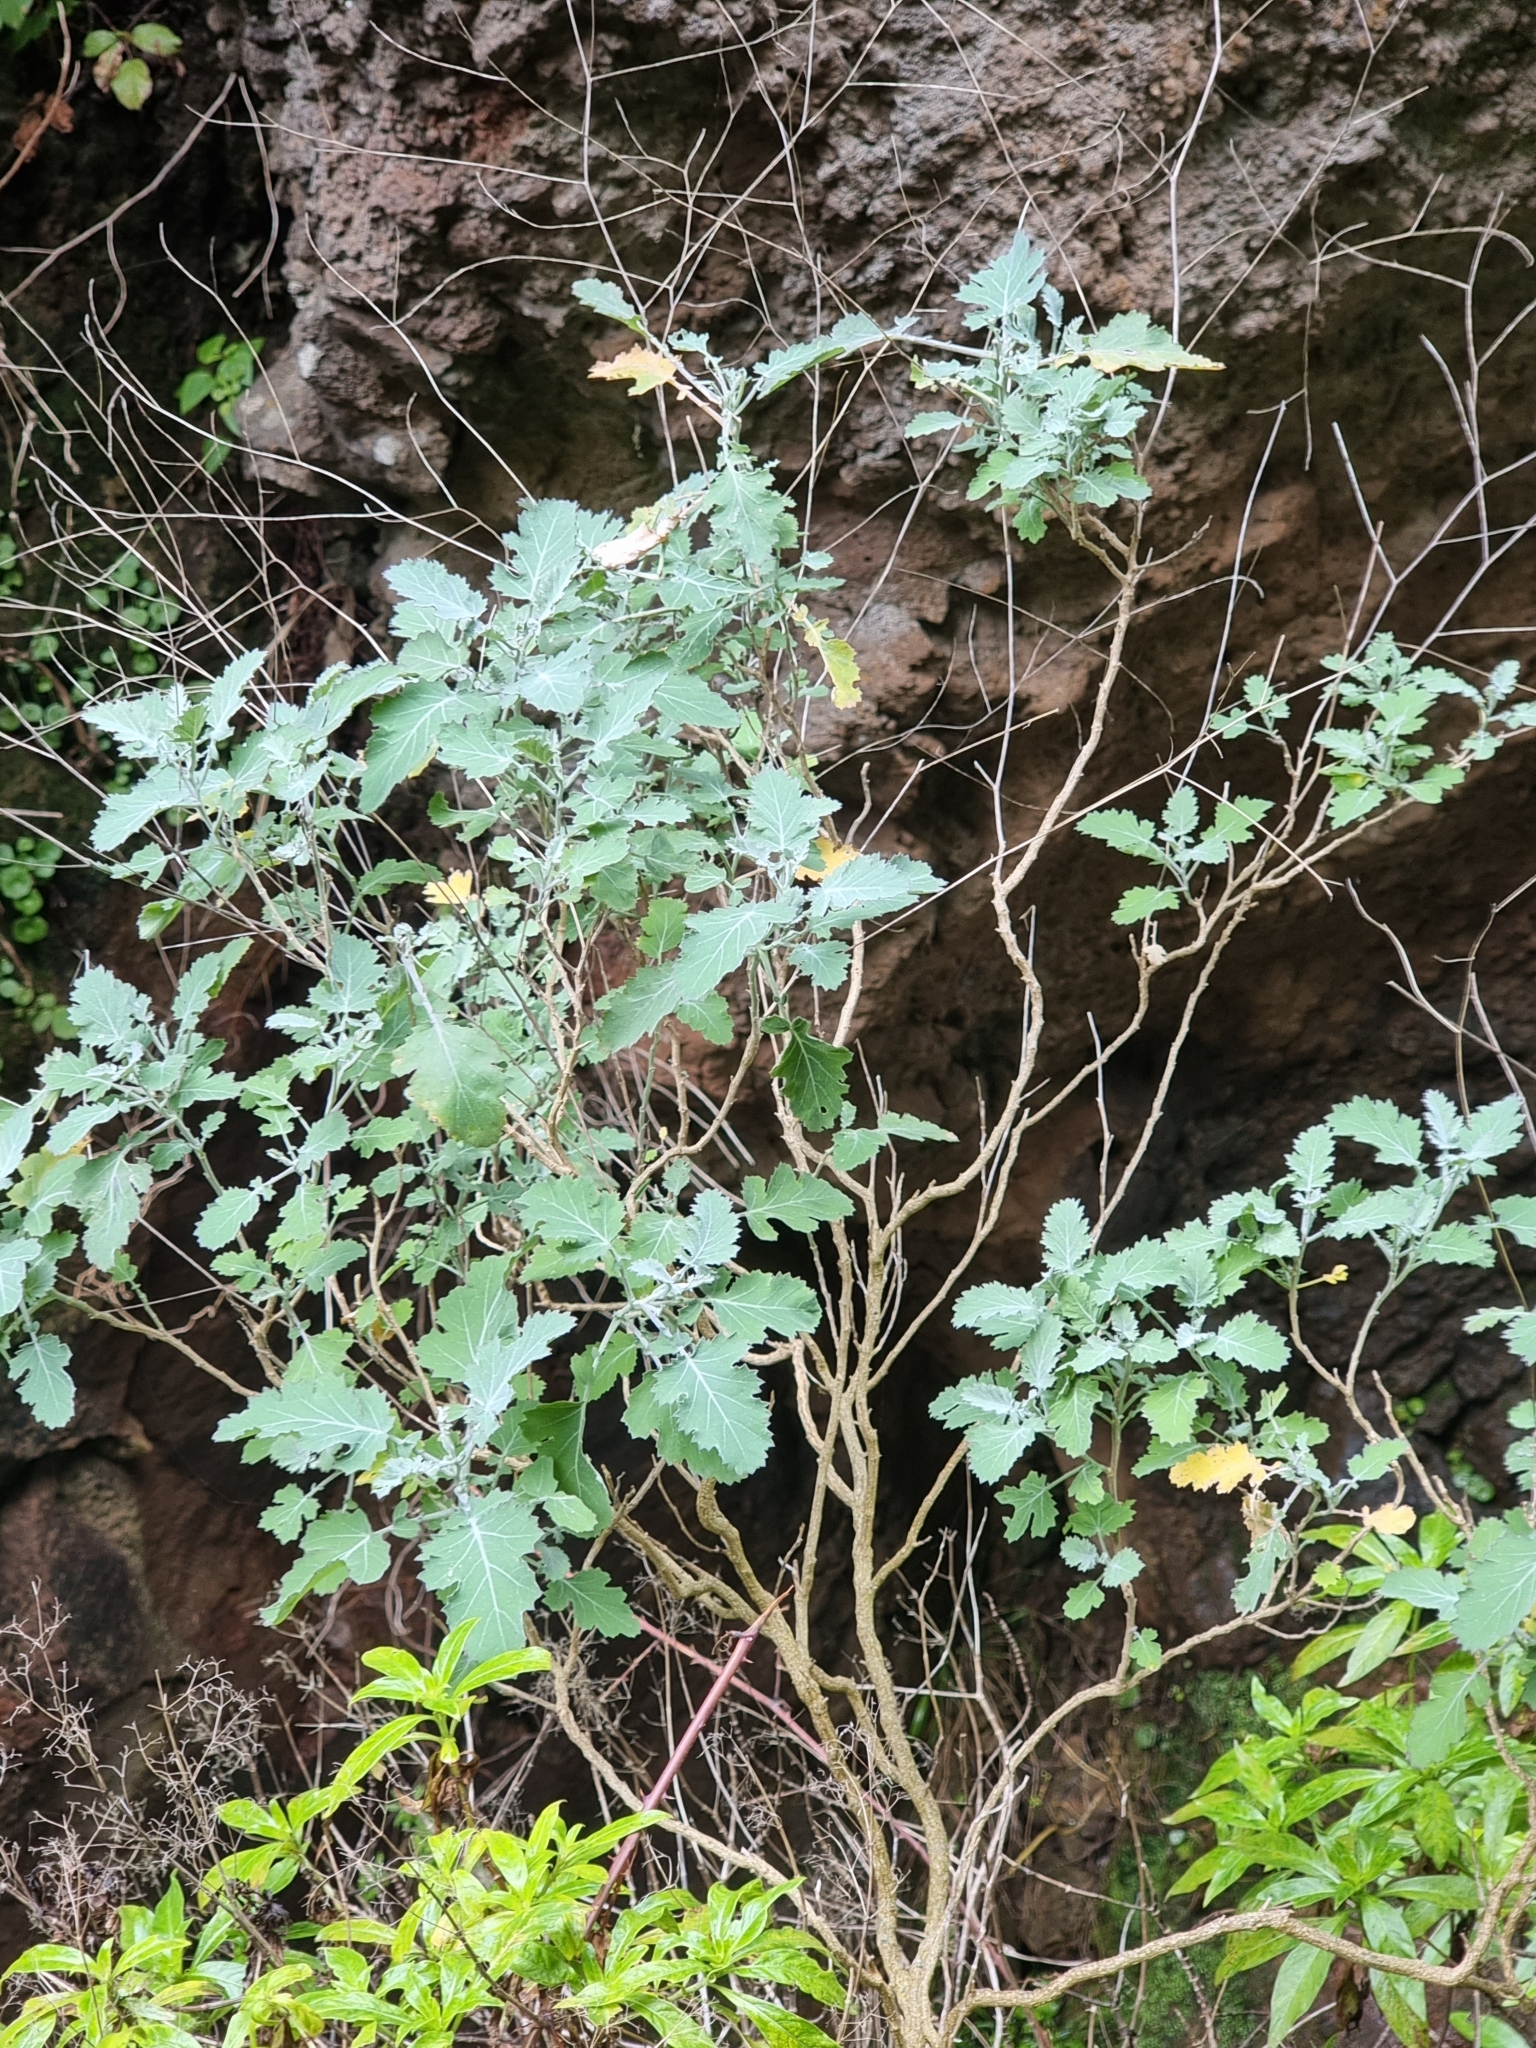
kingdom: Plantae
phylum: Tracheophyta
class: Magnoliopsida
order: Brassicales
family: Brassicaceae
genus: Crambe
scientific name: Crambe fruticosa
